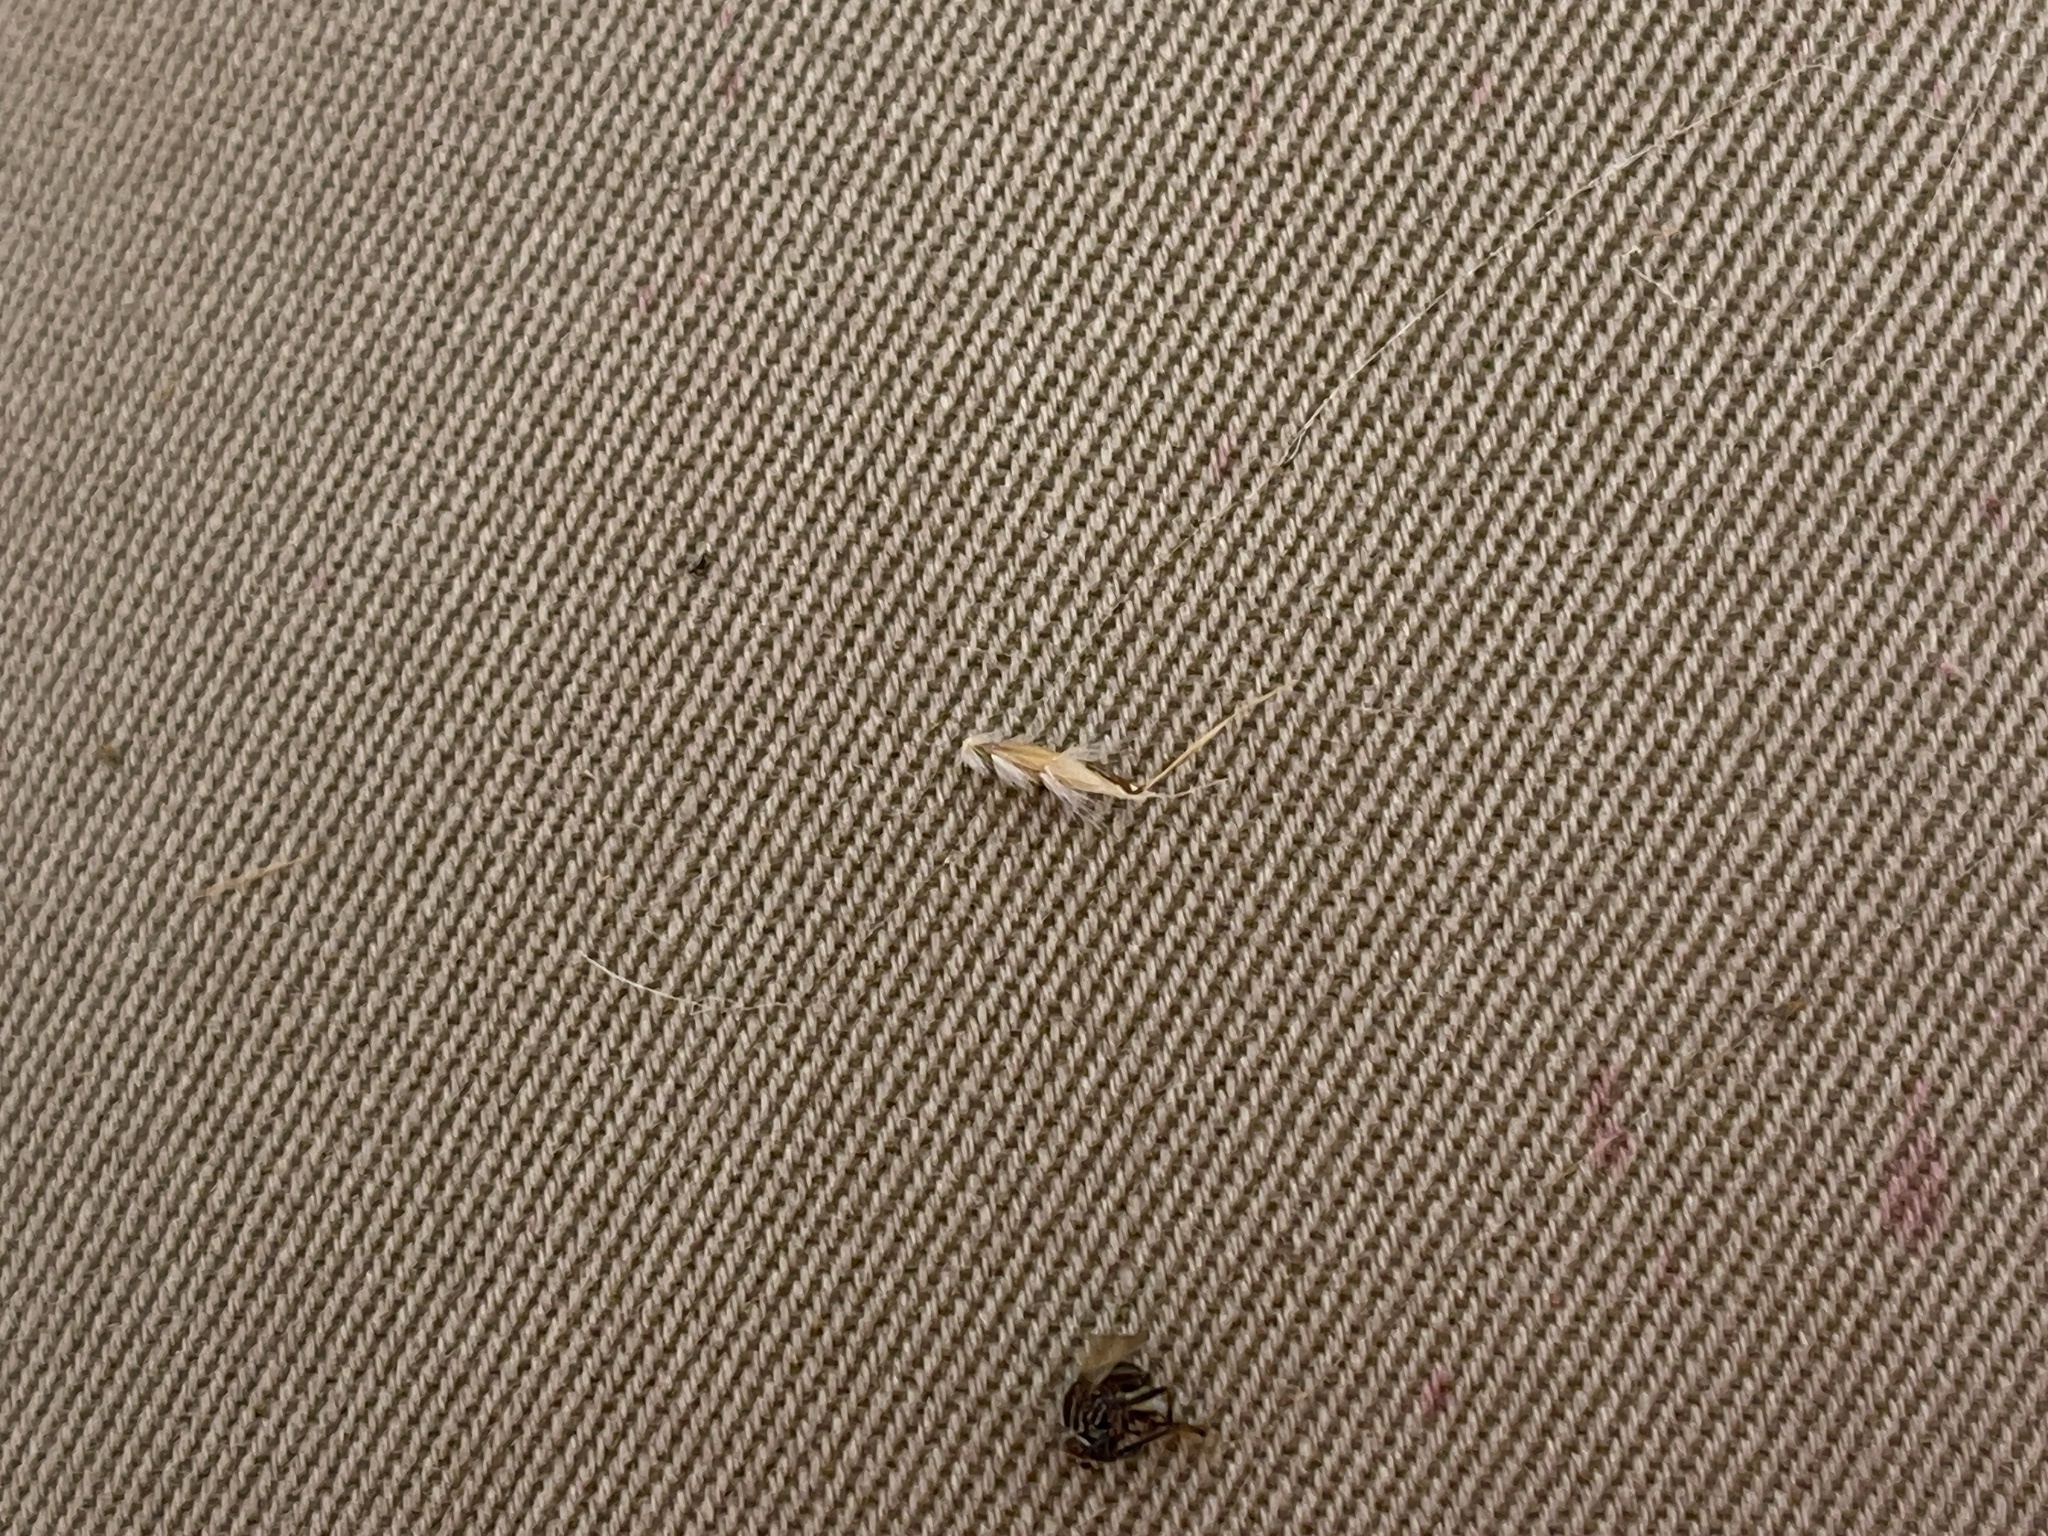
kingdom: Plantae
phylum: Tracheophyta
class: Liliopsida
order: Poales
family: Poaceae
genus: Rytidosperma
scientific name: Rytidosperma duttonianum
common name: Brown-black wallaby grass
